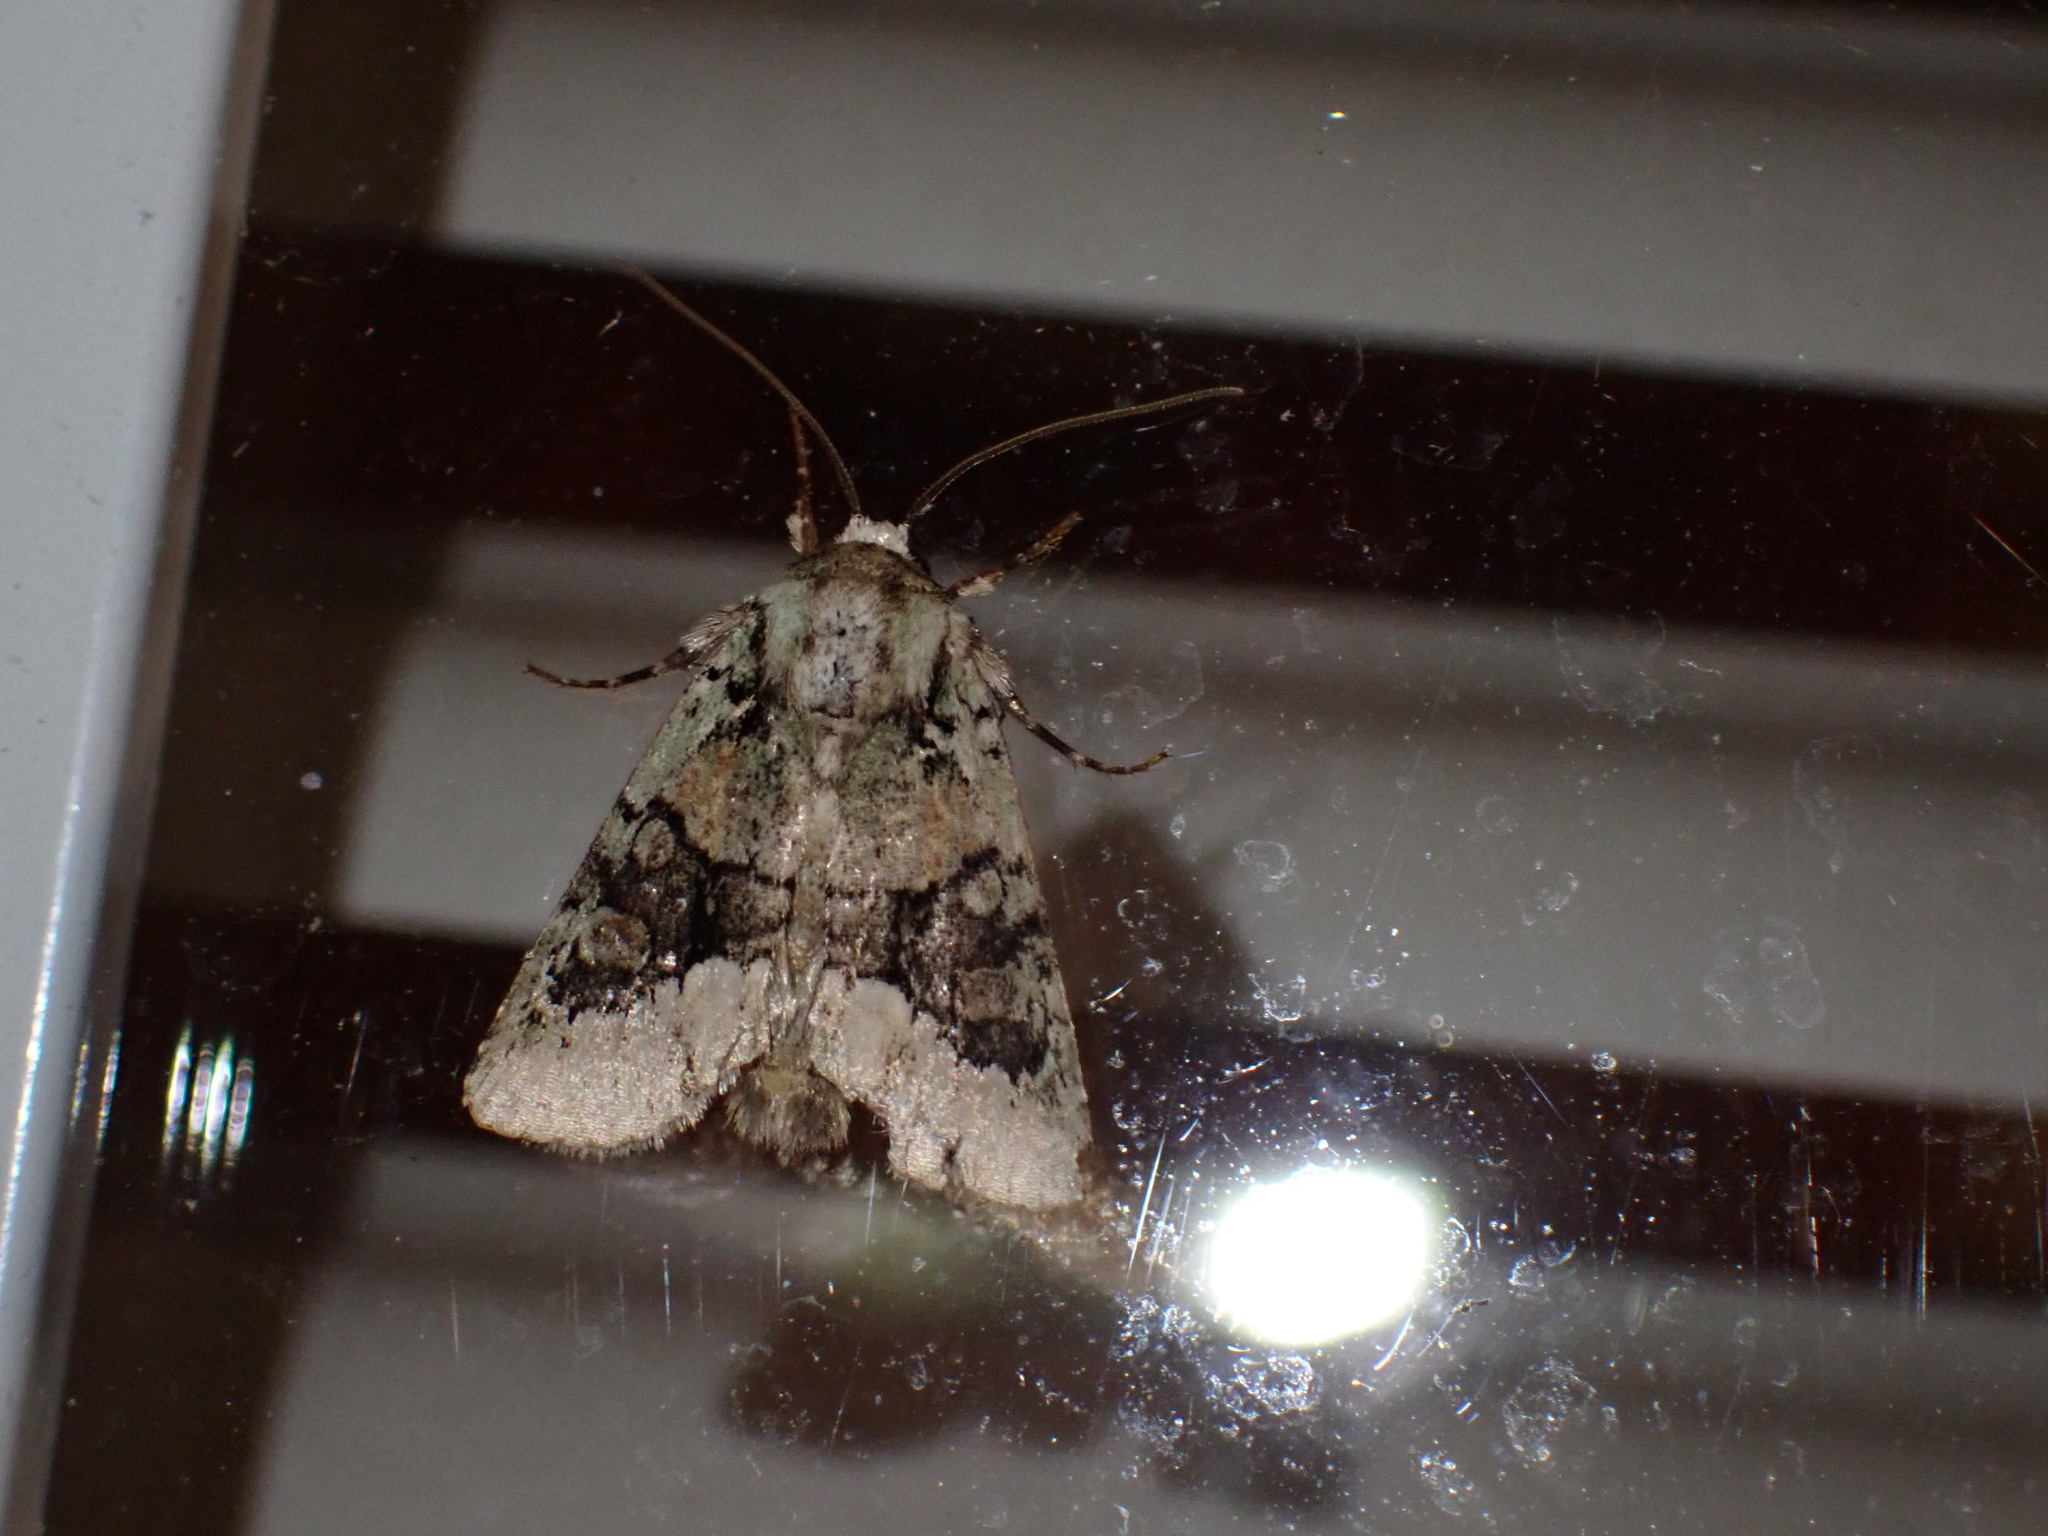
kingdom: Animalia
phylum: Arthropoda
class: Insecta
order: Lepidoptera
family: Noctuidae
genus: Lacinipolia
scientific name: Lacinipolia explicata
